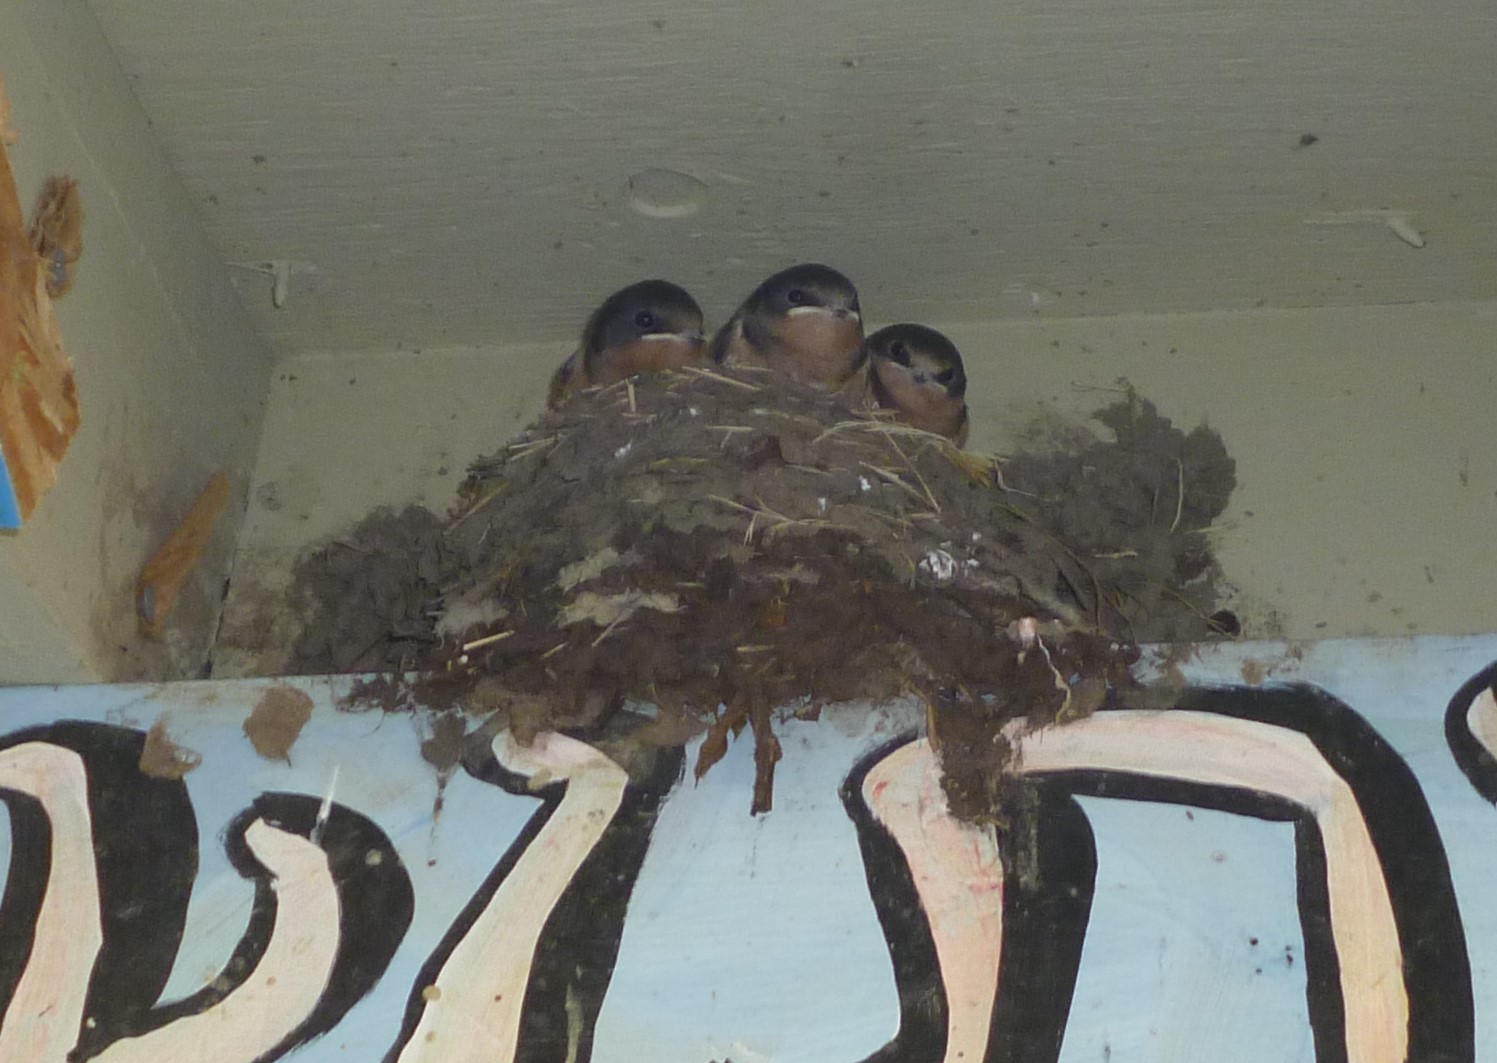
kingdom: Animalia
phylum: Chordata
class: Aves
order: Passeriformes
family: Hirundinidae
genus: Hirundo
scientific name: Hirundo rustica
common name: Barn swallow
